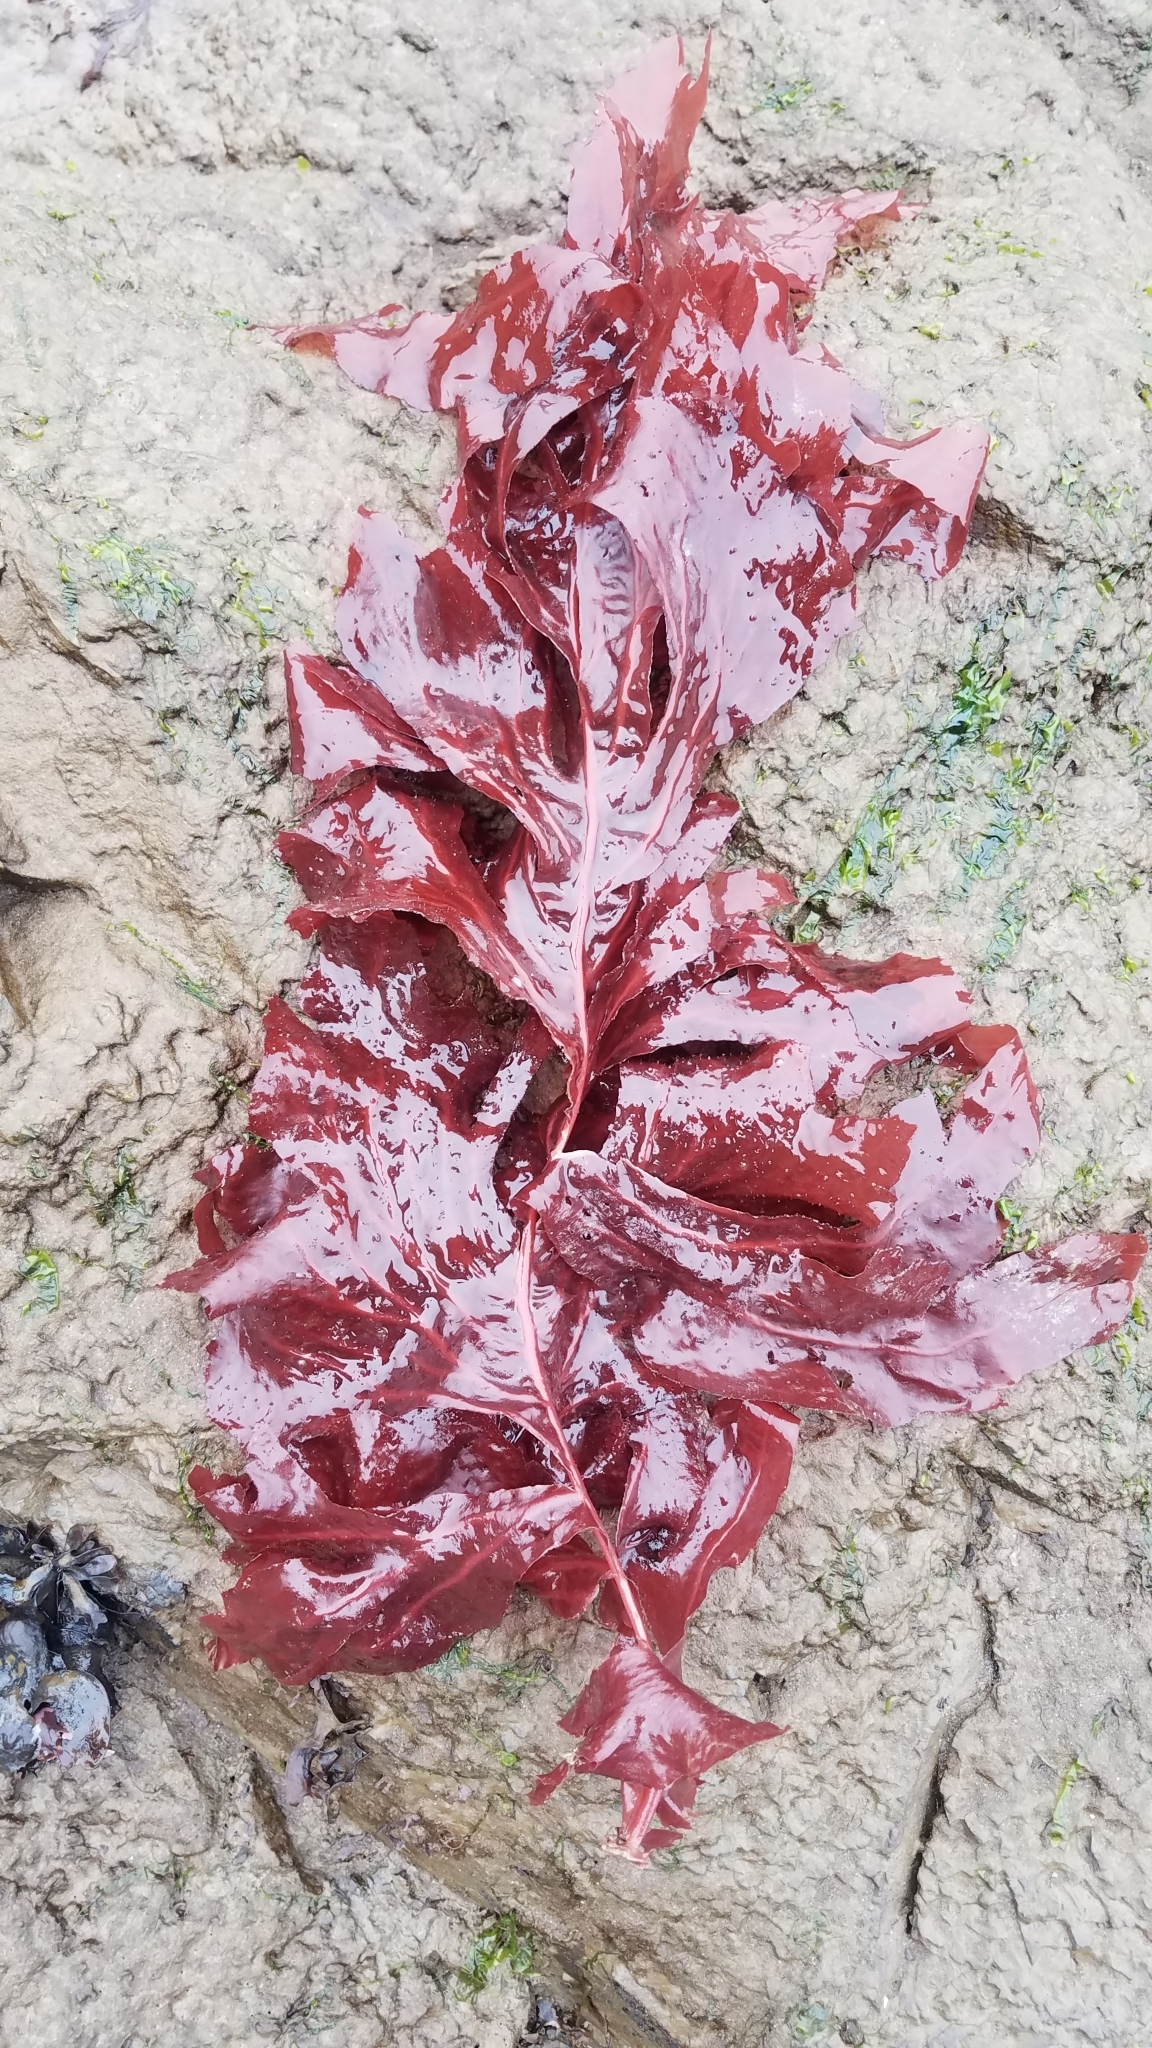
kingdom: Plantae
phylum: Rhodophyta
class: Florideophyceae
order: Gigartinales
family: Kallymeniaceae
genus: Erythrophyllum
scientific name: Erythrophyllum delesserioides
